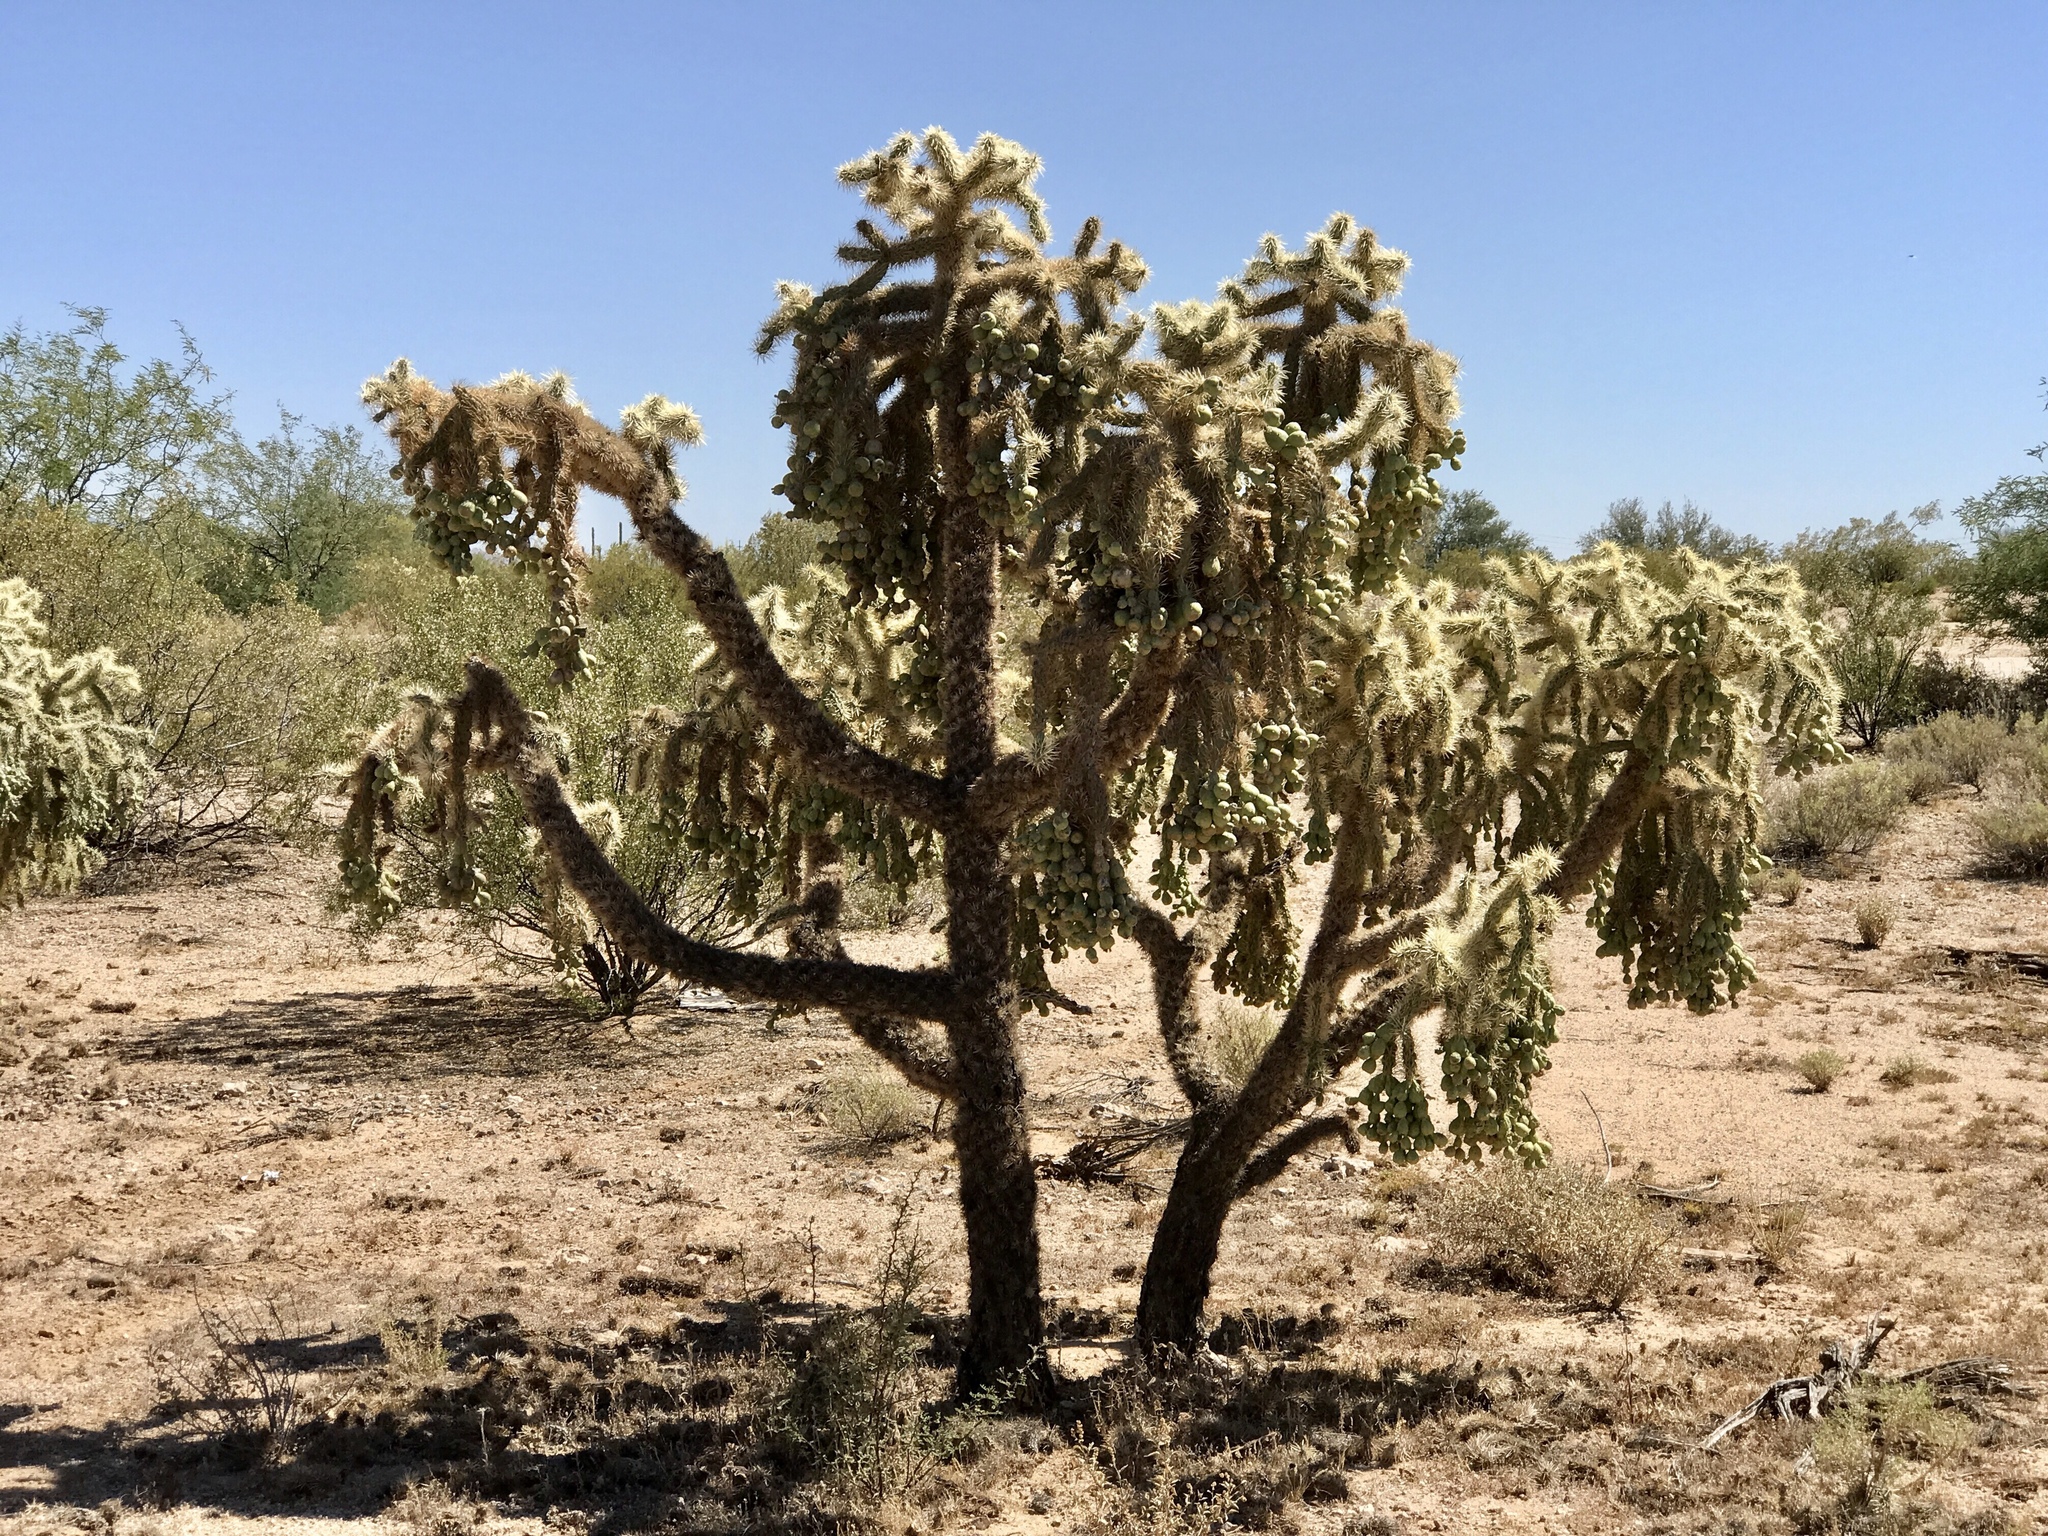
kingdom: Plantae
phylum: Tracheophyta
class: Magnoliopsida
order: Caryophyllales
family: Cactaceae
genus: Cylindropuntia
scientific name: Cylindropuntia fulgida
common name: Jumping cholla
